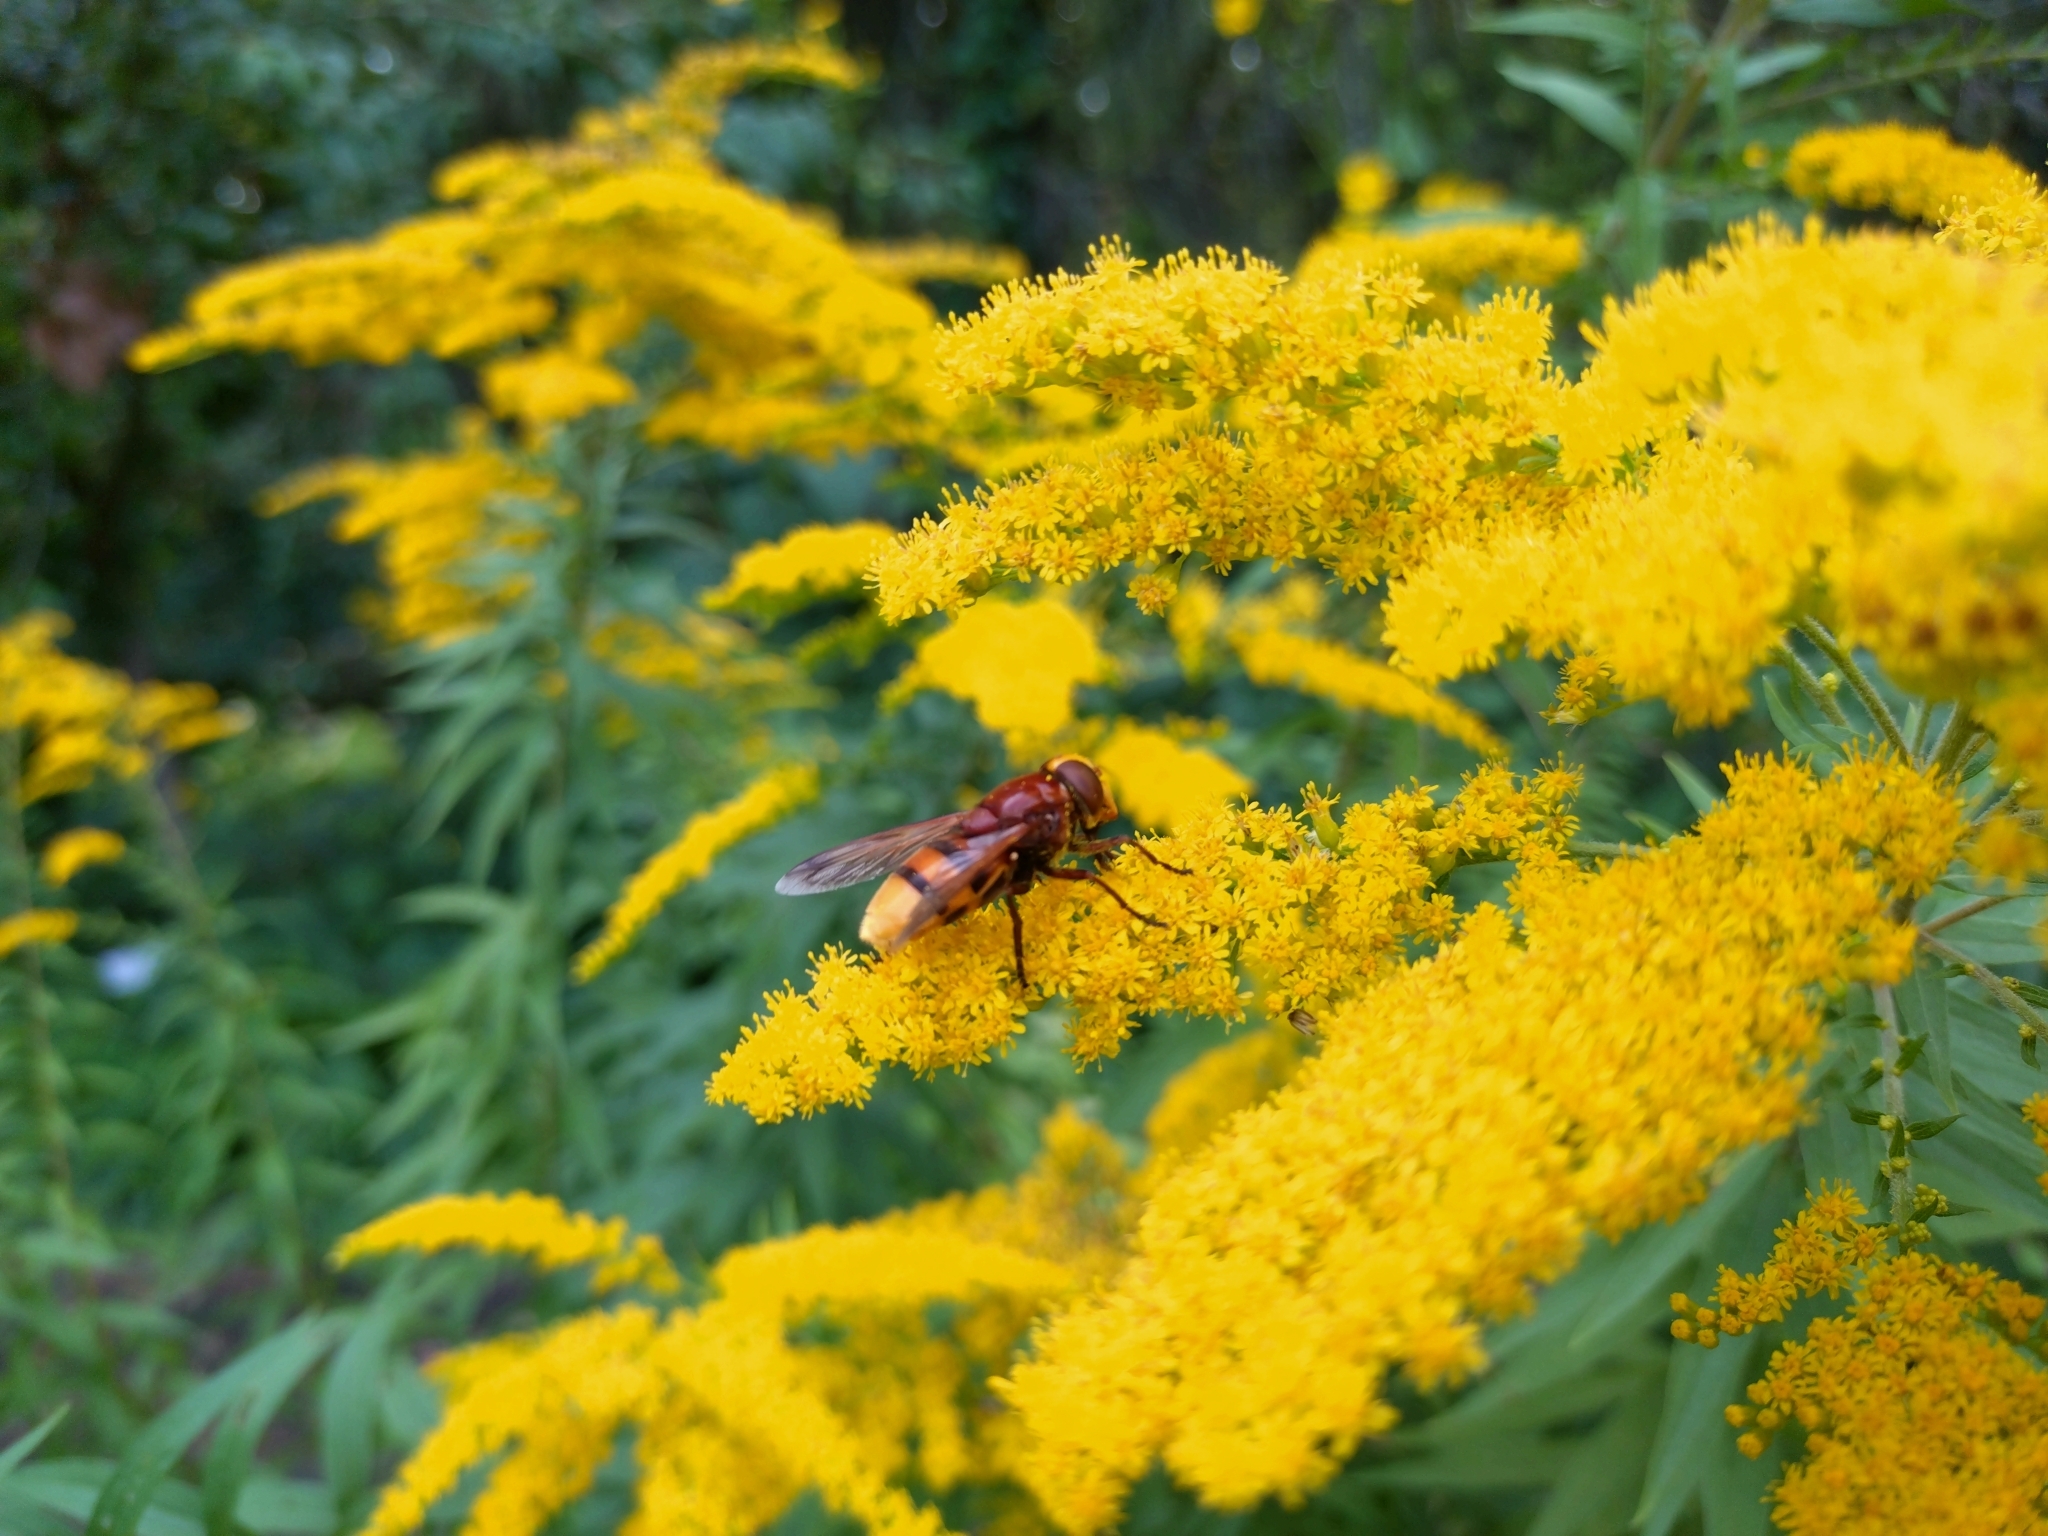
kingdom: Animalia
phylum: Arthropoda
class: Insecta
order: Diptera
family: Syrphidae
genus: Volucella
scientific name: Volucella zonaria
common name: Hornet hoverfly
